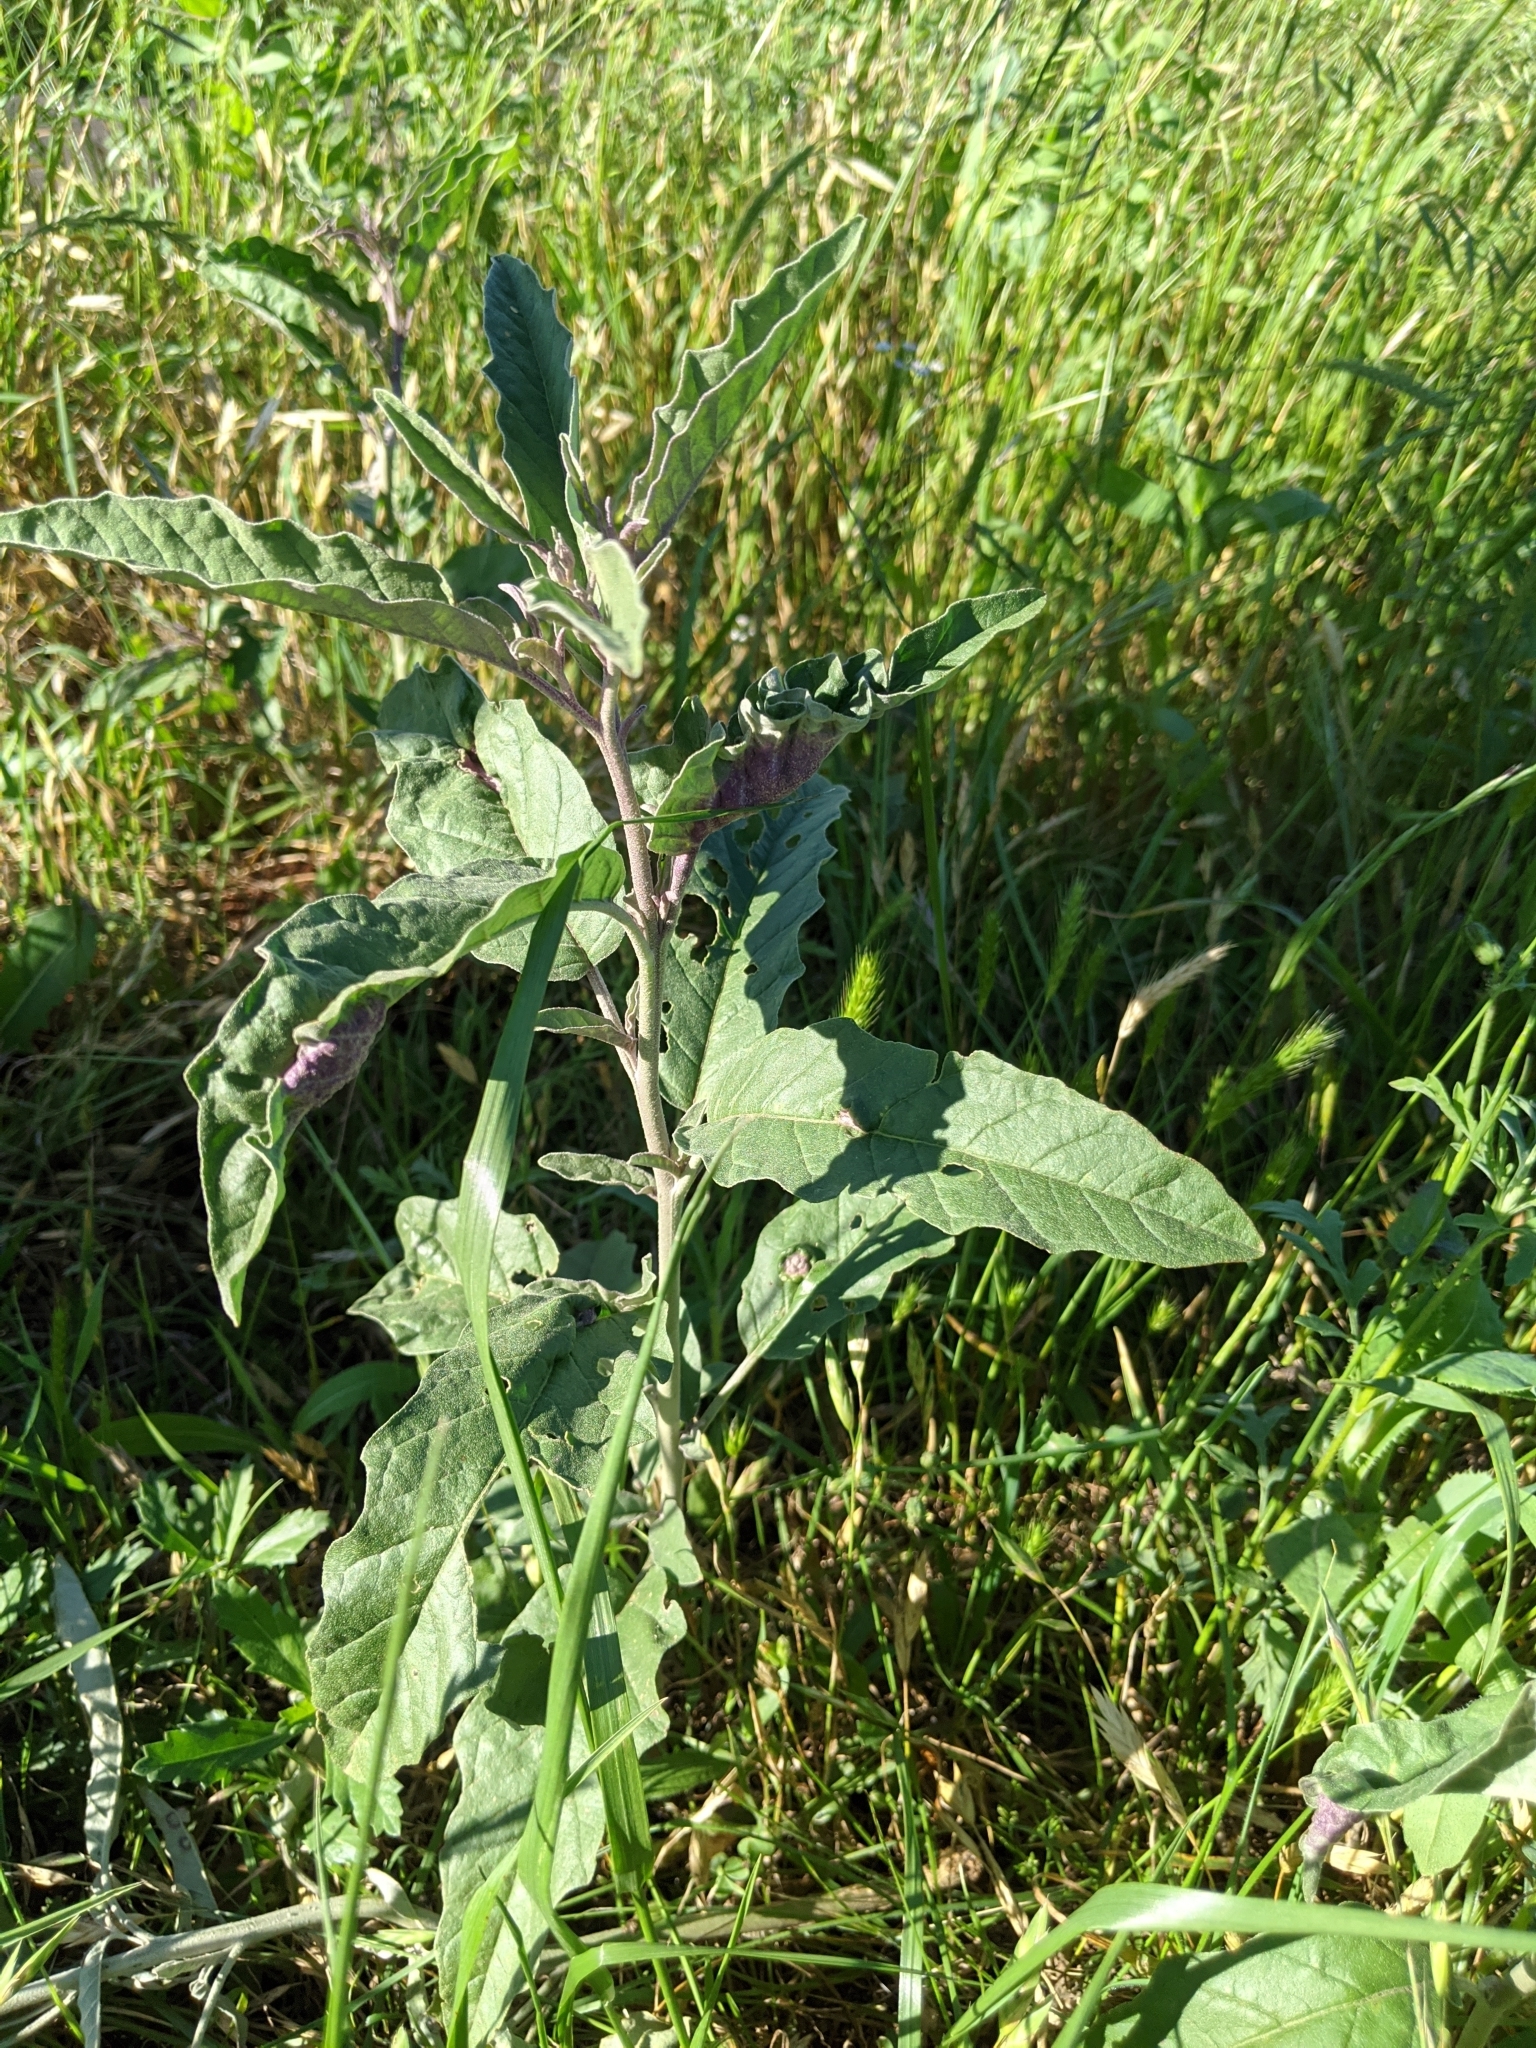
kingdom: Plantae
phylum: Tracheophyta
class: Magnoliopsida
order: Solanales
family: Solanaceae
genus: Solanum
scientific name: Solanum elaeagnifolium
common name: Silverleaf nightshade
